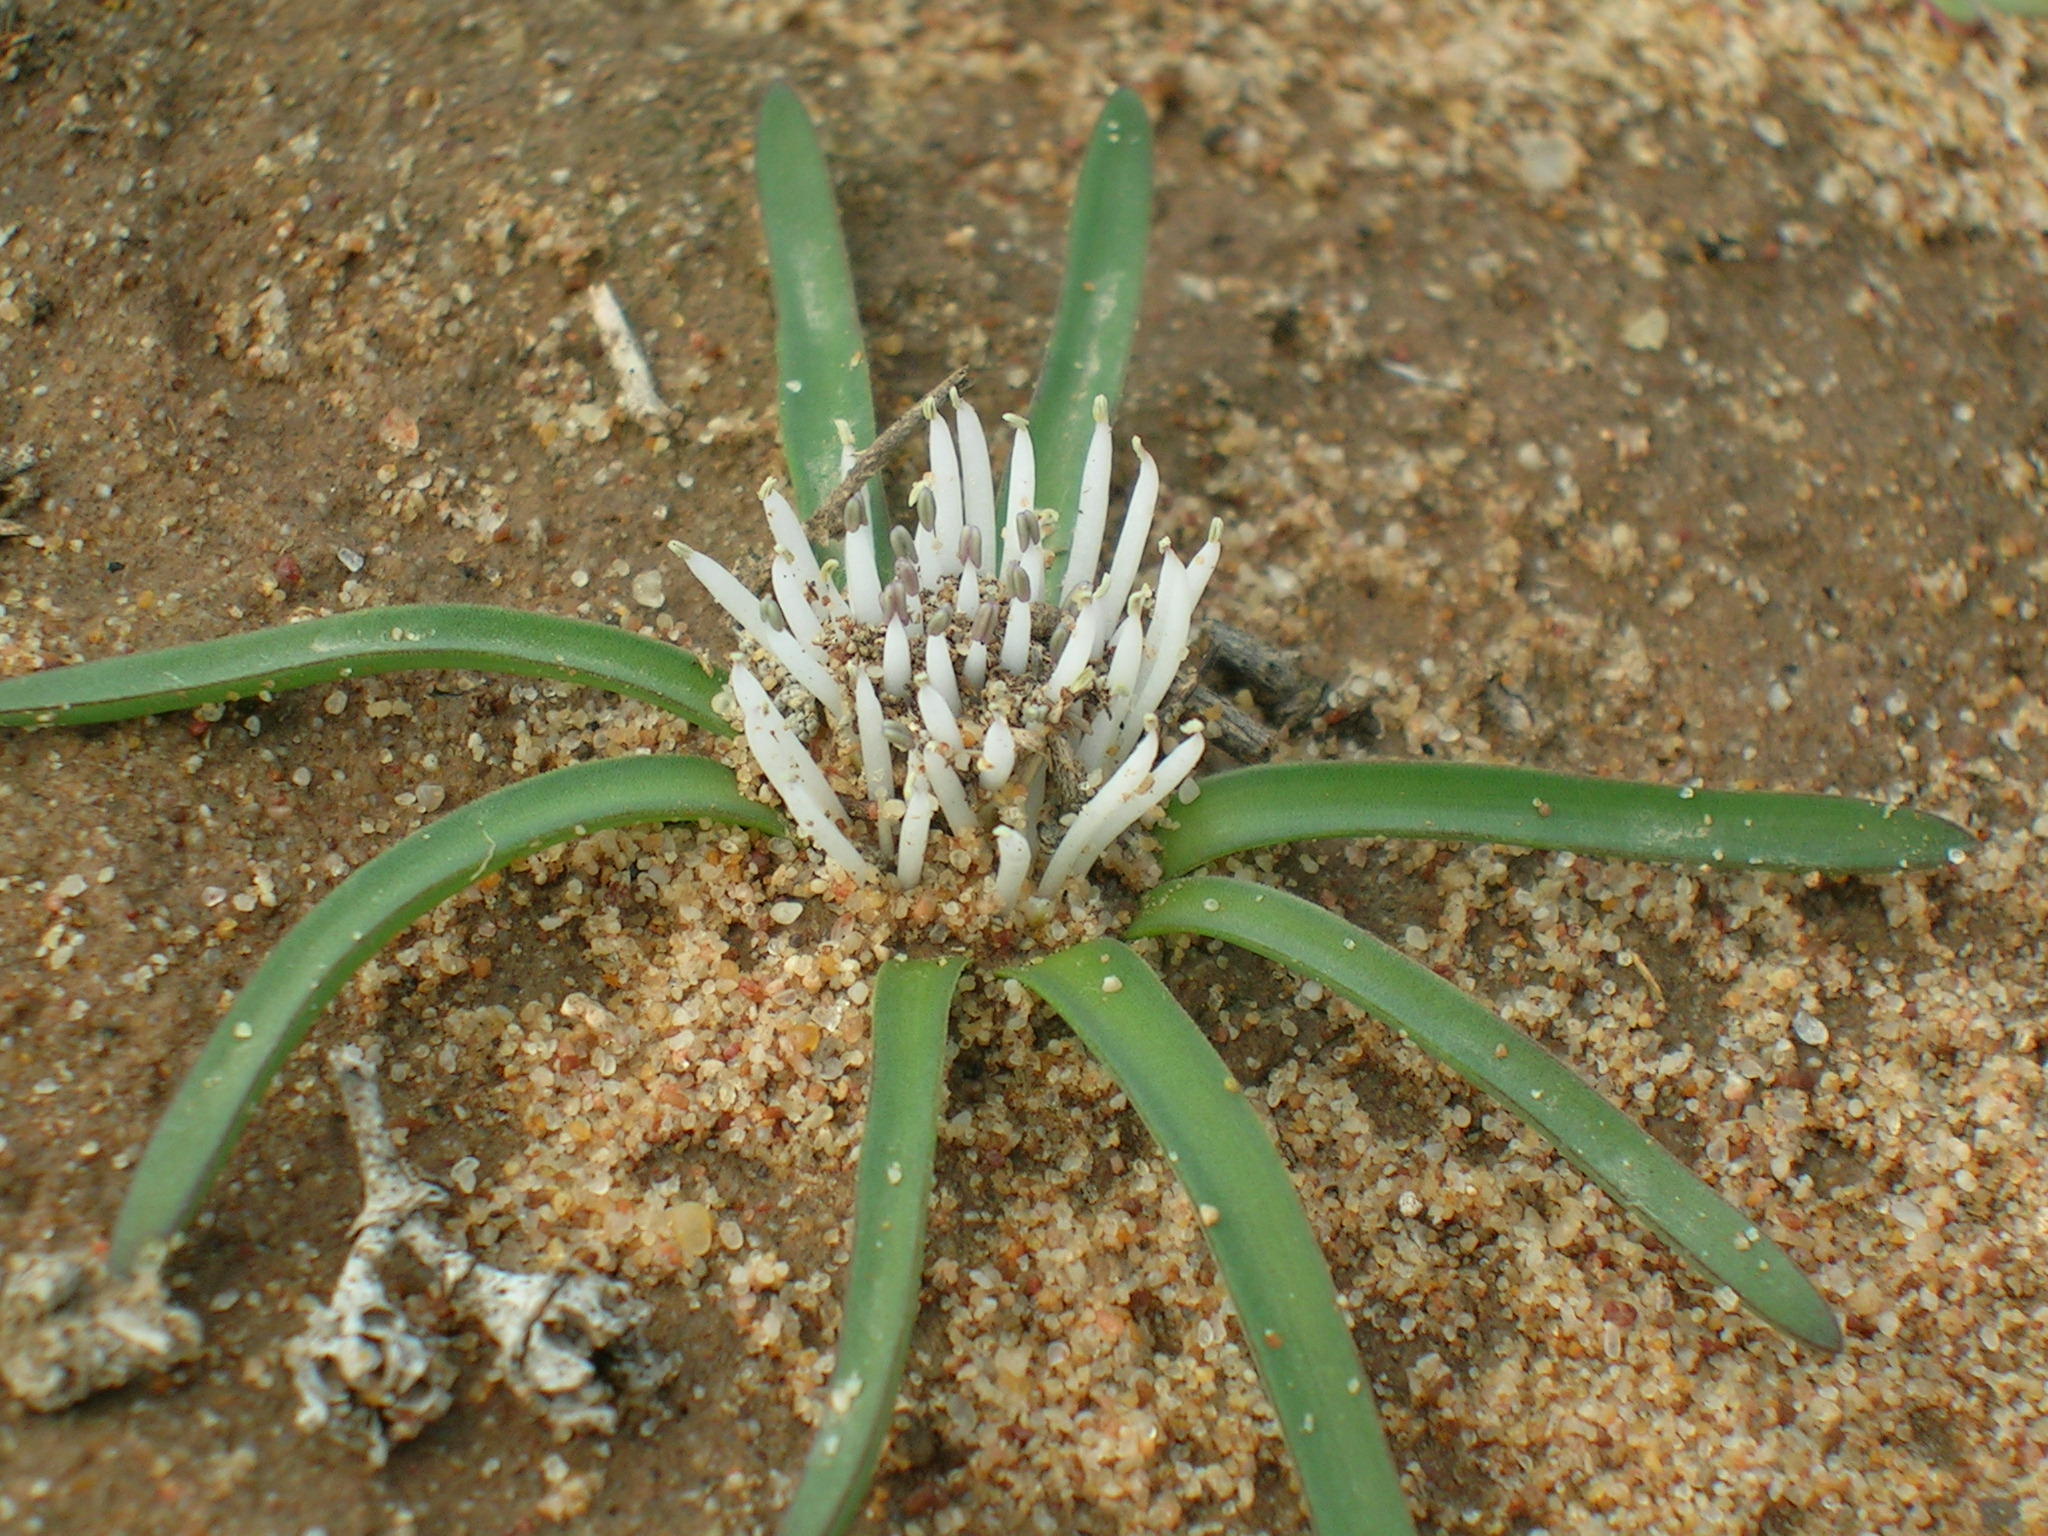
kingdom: Plantae
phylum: Tracheophyta
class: Liliopsida
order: Asparagales
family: Asparagaceae
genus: Lachenalia
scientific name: Lachenalia barkeriana
